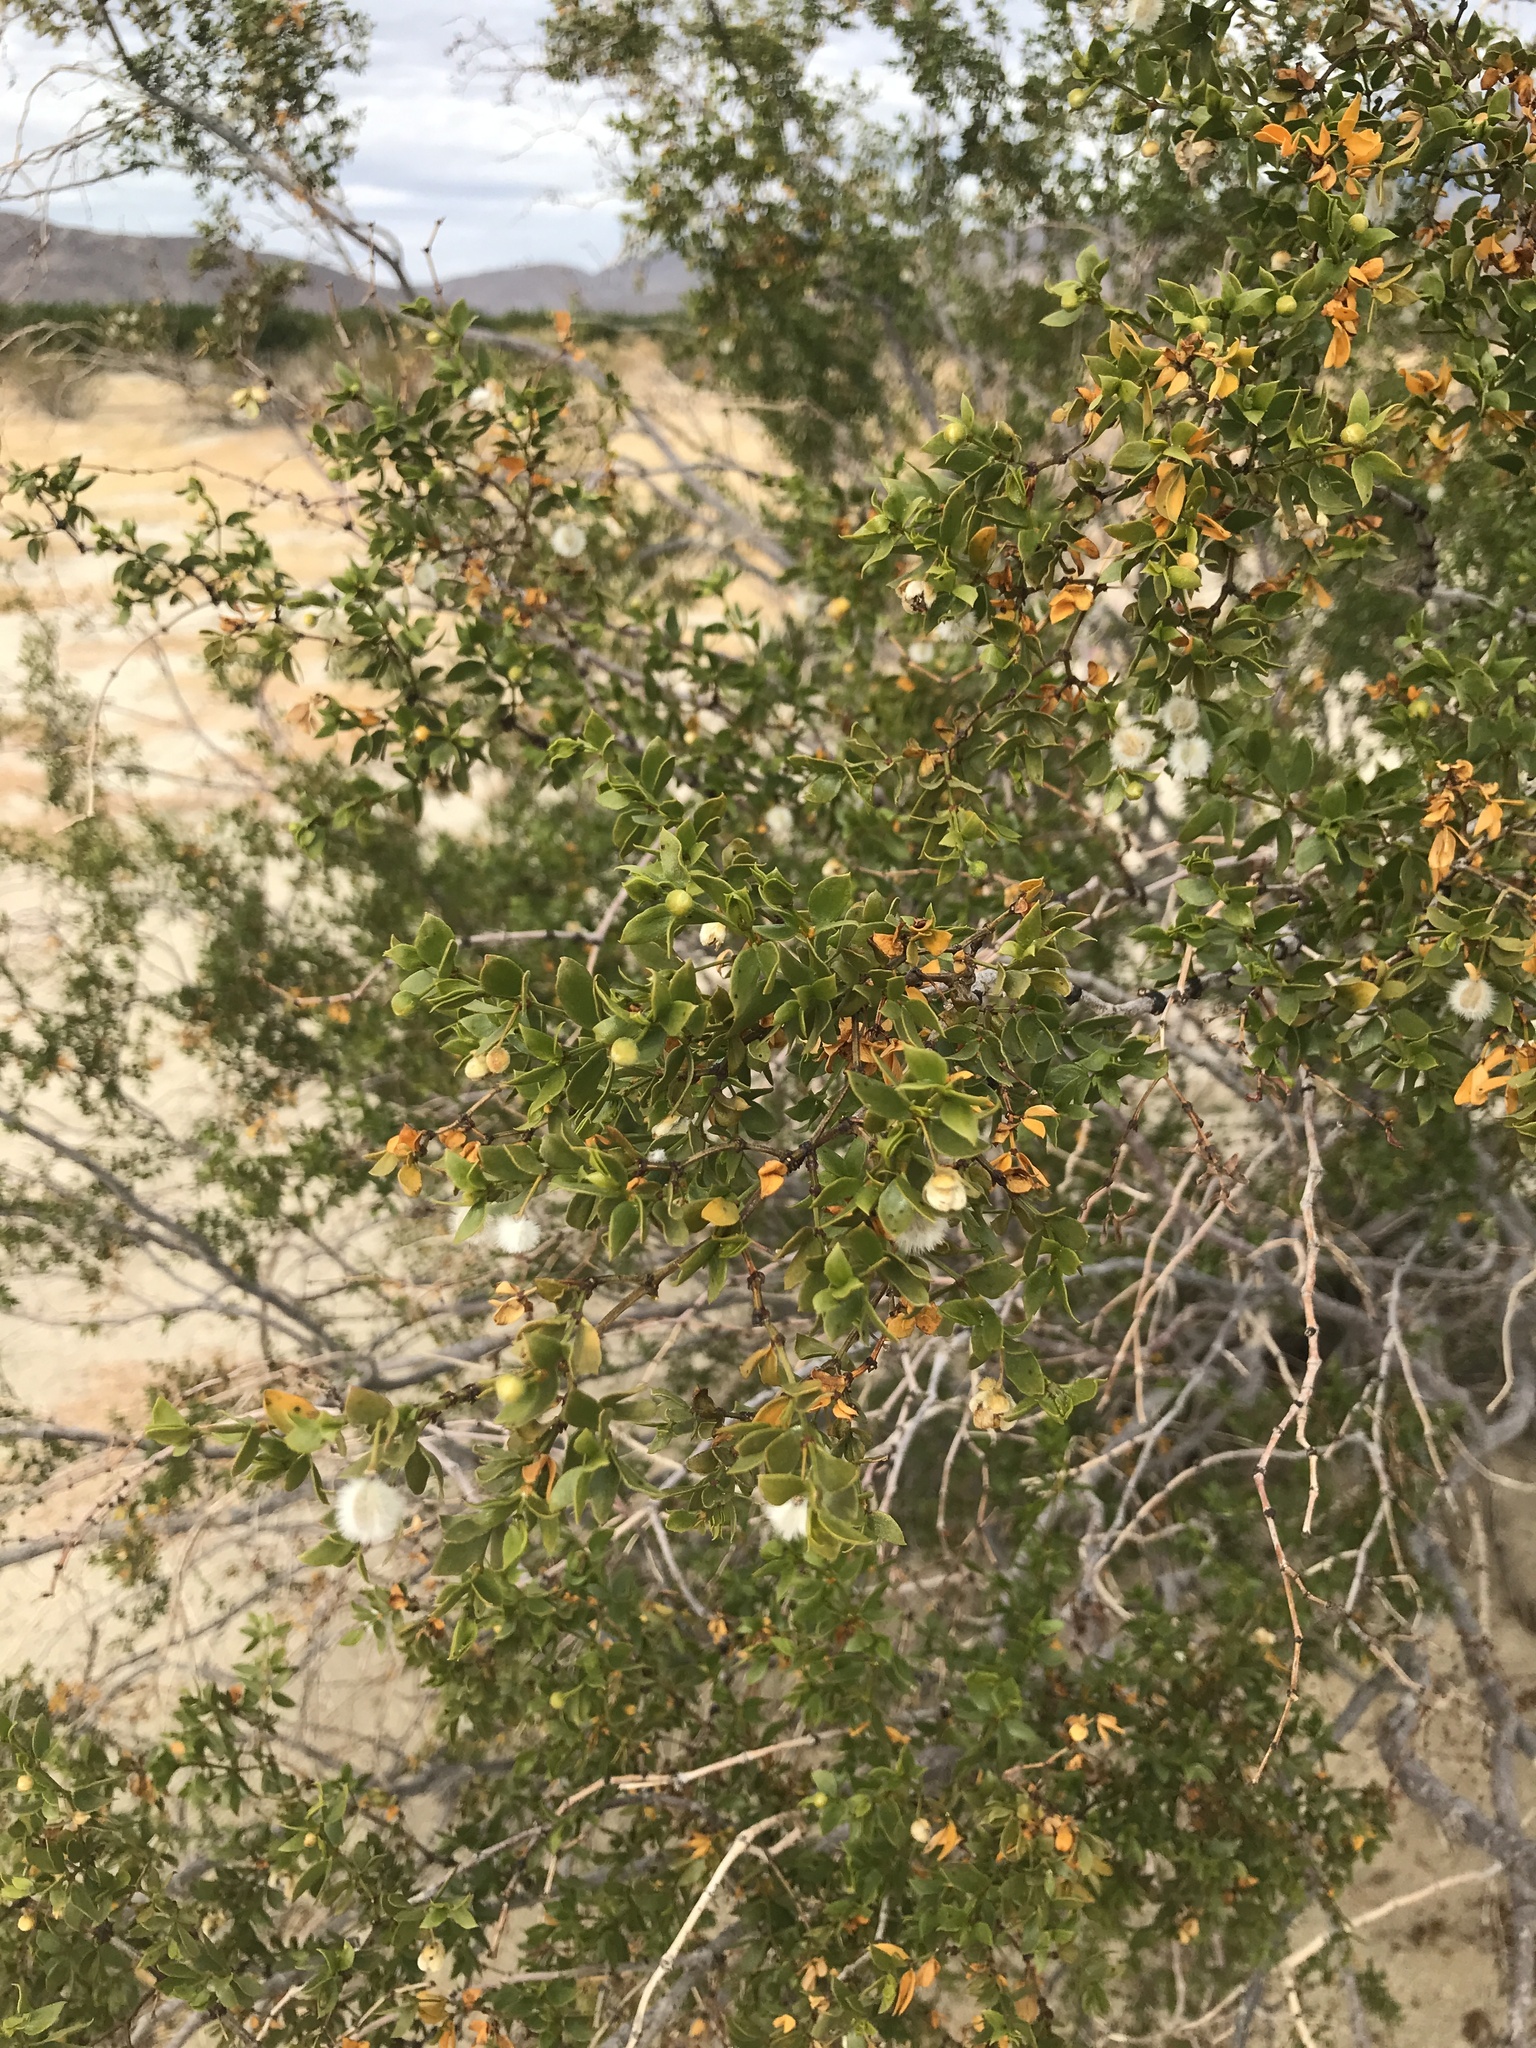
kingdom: Plantae
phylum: Tracheophyta
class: Magnoliopsida
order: Zygophyllales
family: Zygophyllaceae
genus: Larrea
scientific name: Larrea tridentata
